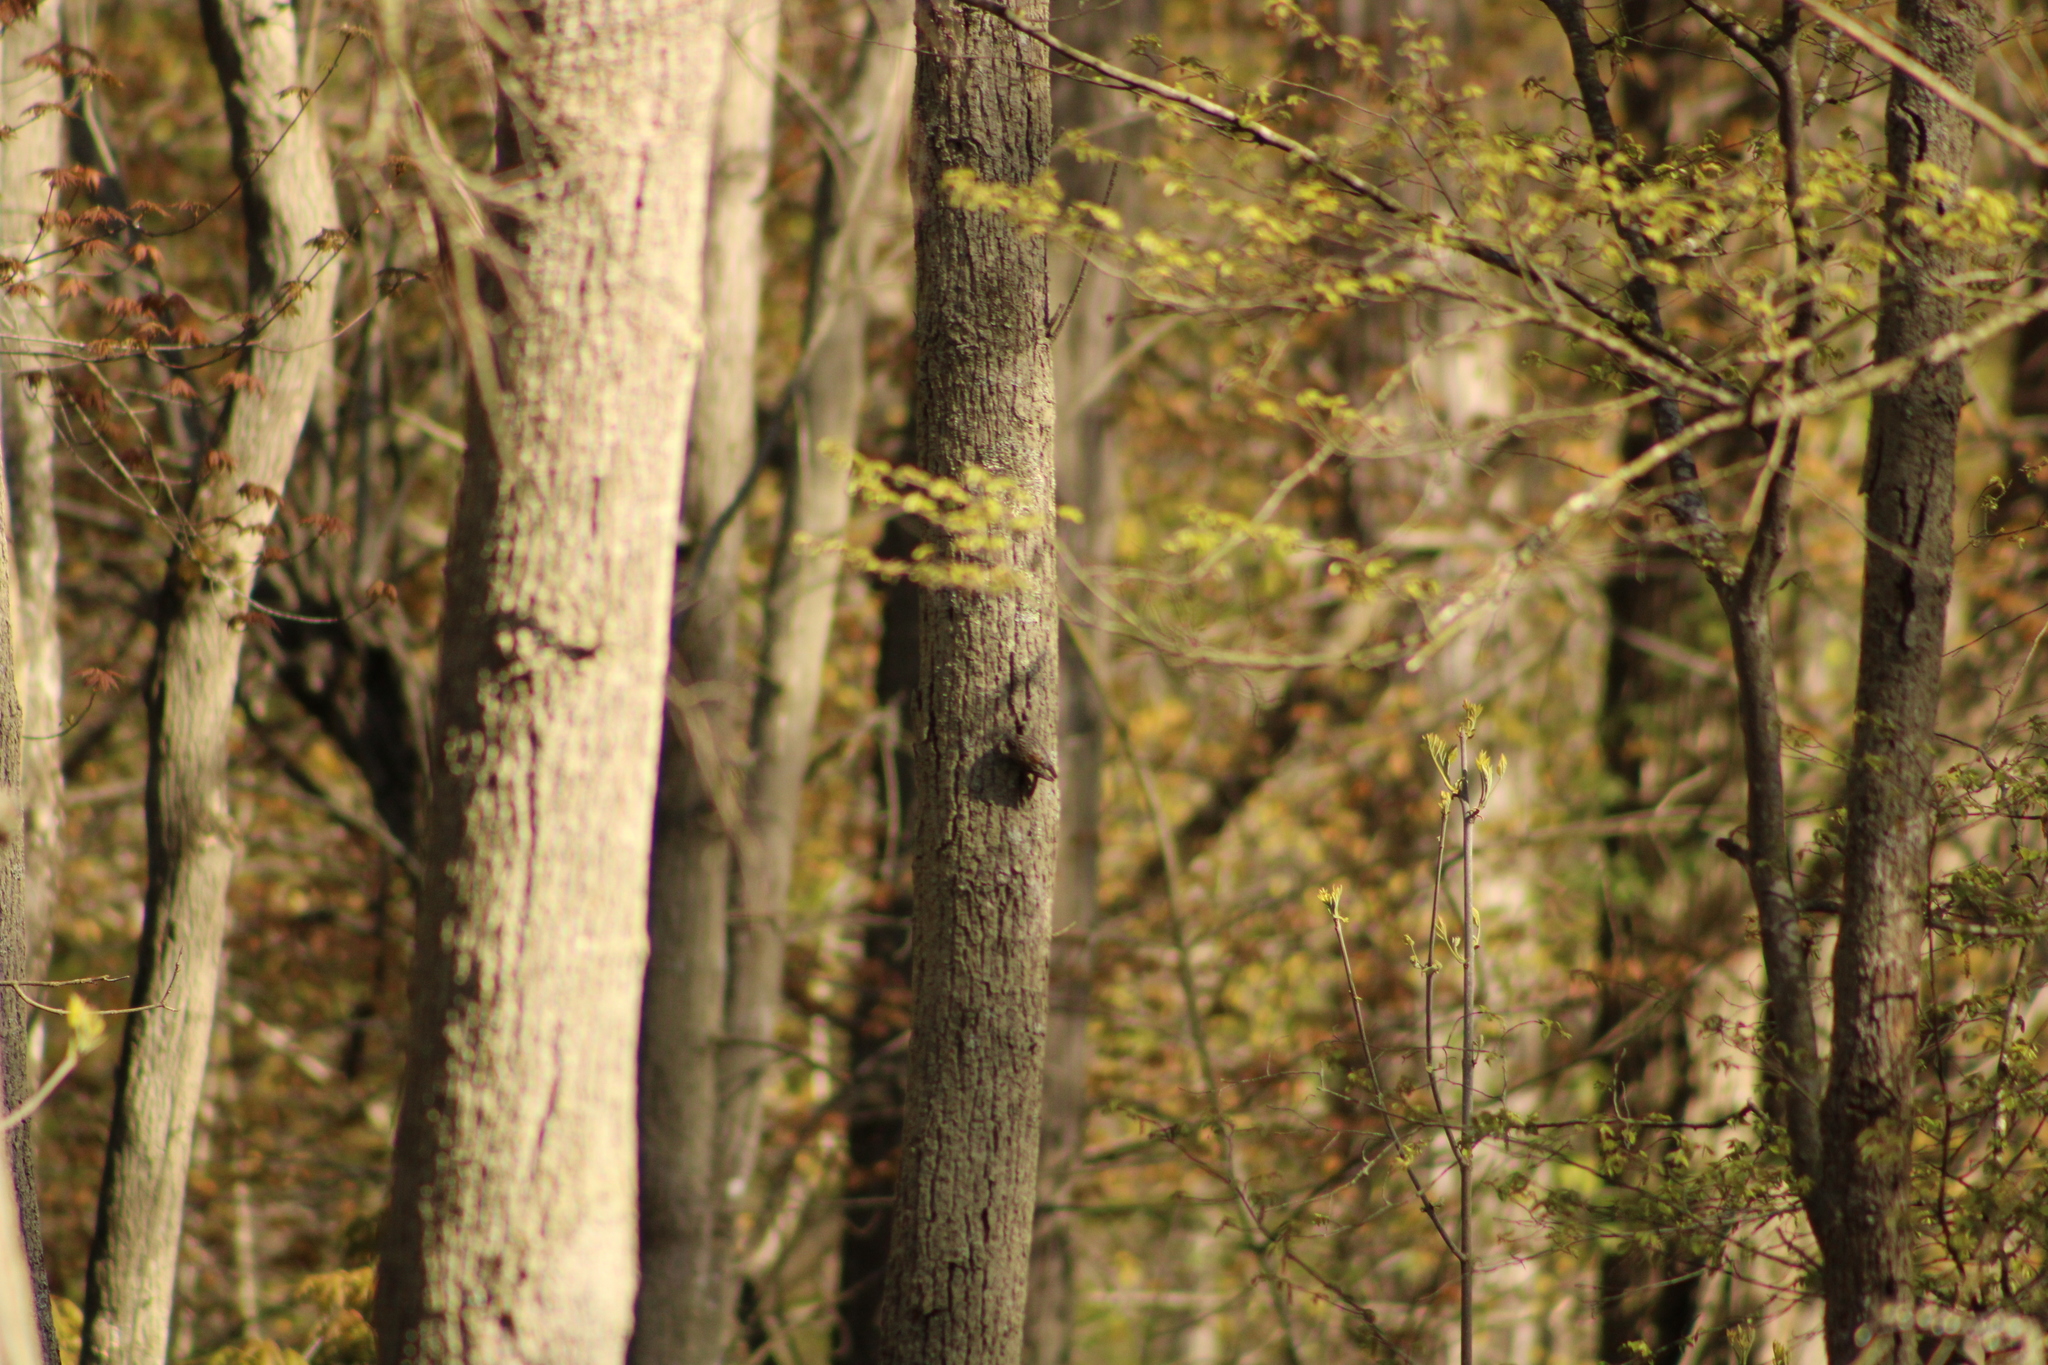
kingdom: Animalia
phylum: Chordata
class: Aves
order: Passeriformes
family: Certhiidae
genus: Certhia
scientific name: Certhia americana
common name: Brown creeper
